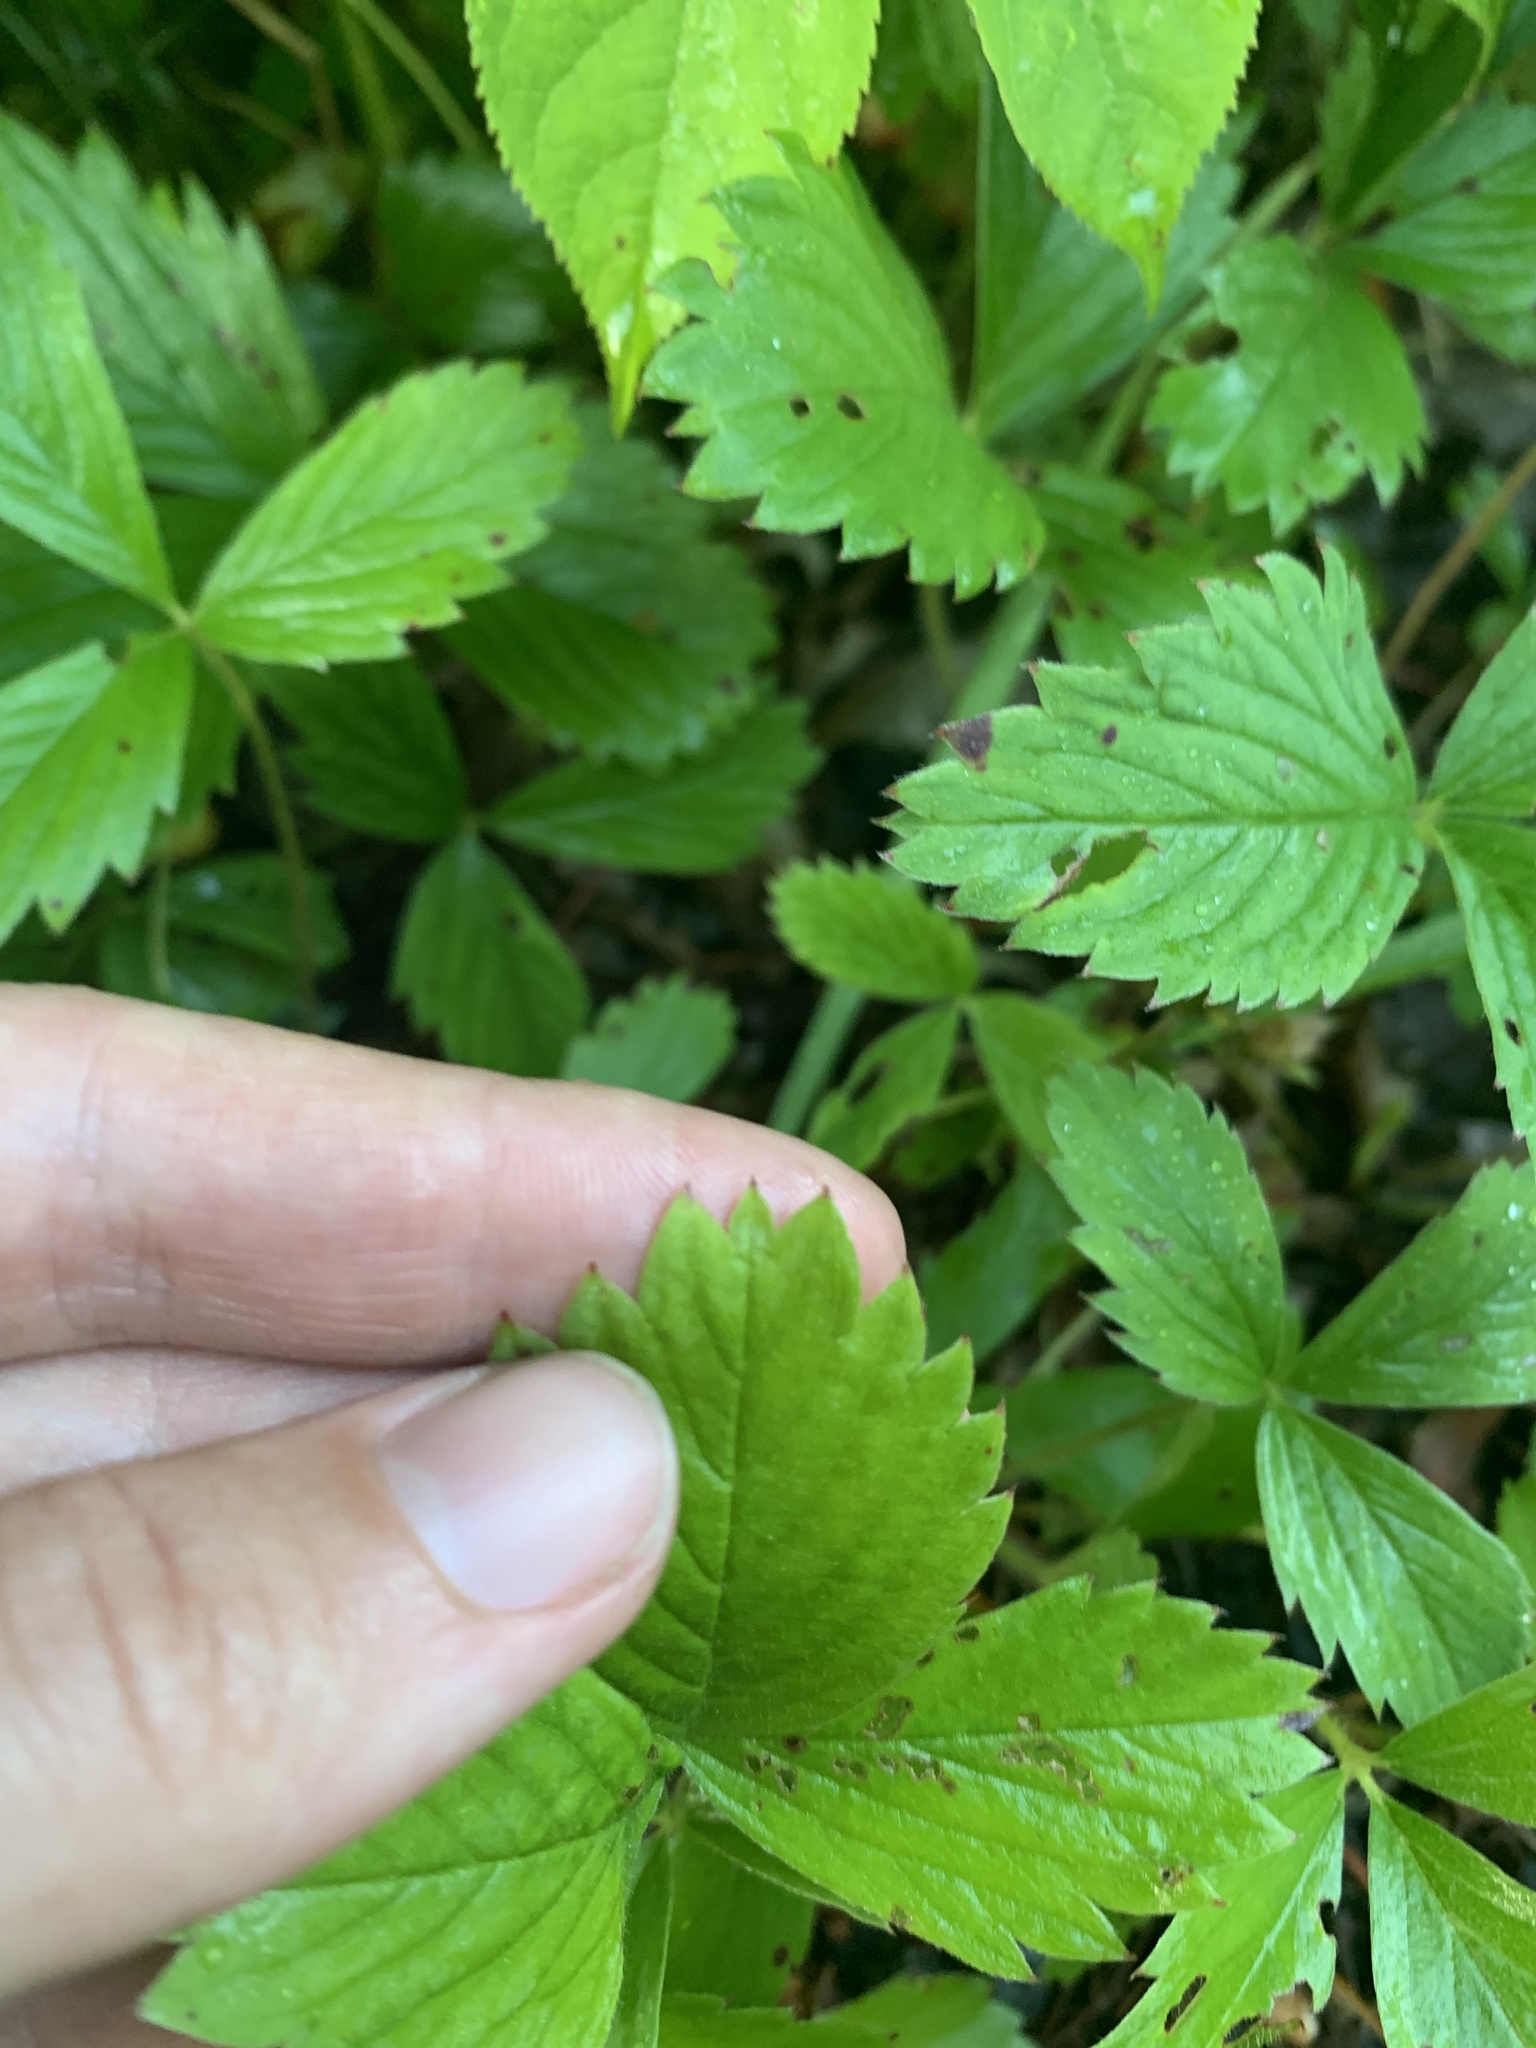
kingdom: Plantae
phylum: Tracheophyta
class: Magnoliopsida
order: Rosales
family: Rosaceae
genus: Fragaria
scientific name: Fragaria virginiana
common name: Thickleaved wild strawberry
